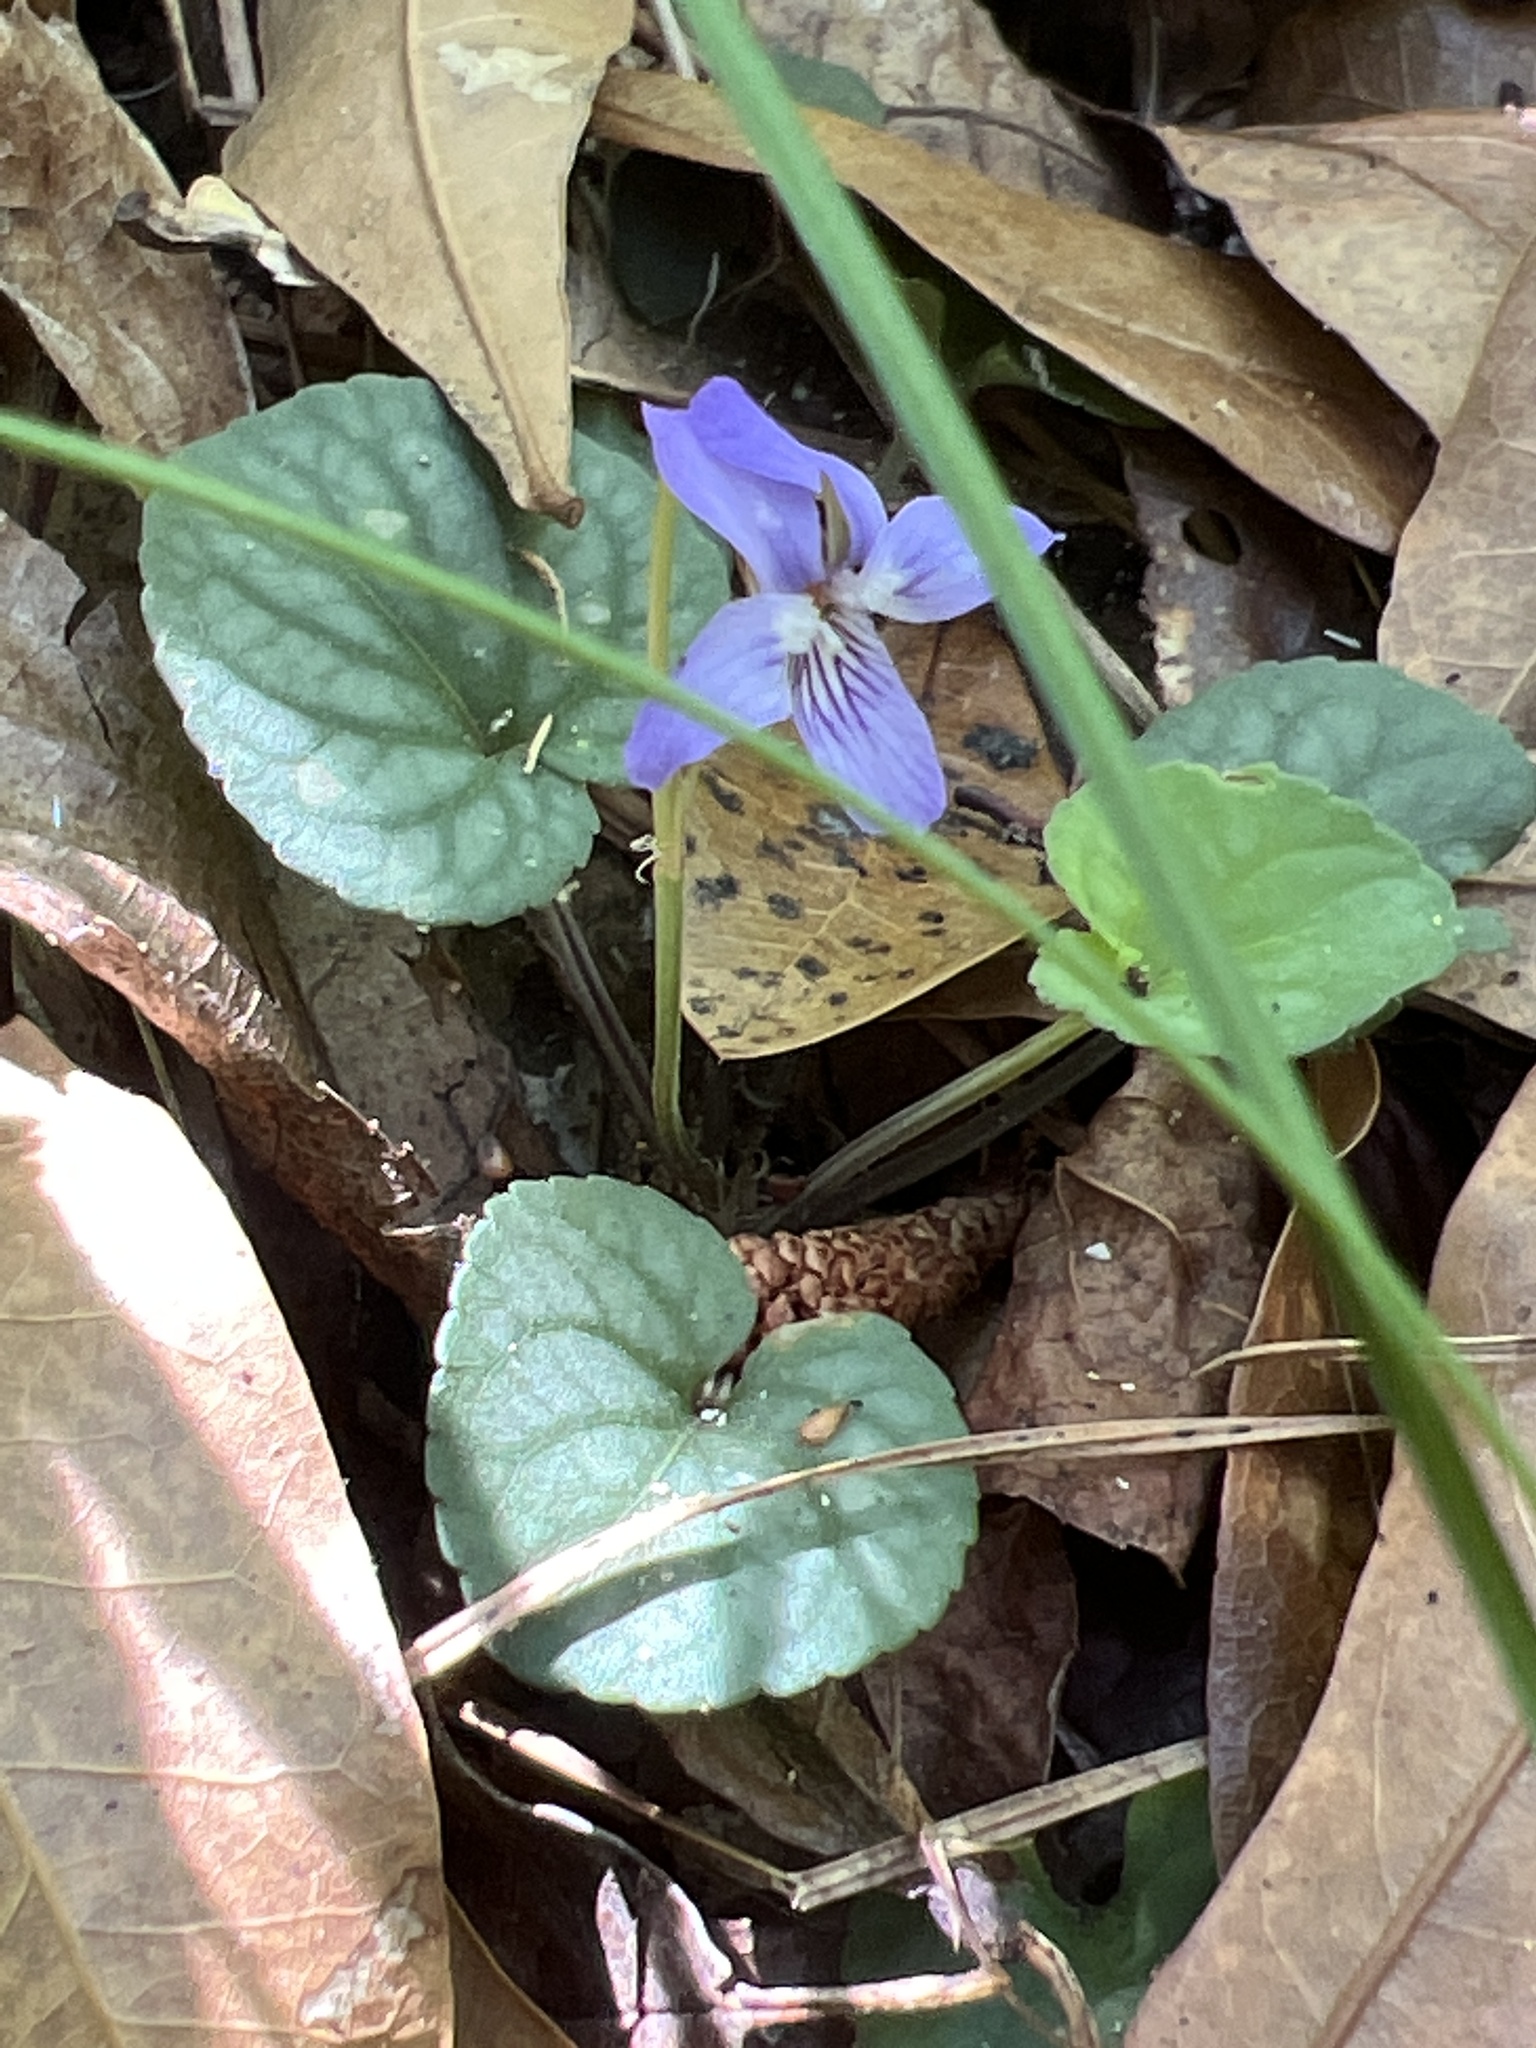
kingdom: Plantae
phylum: Tracheophyta
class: Magnoliopsida
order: Malpighiales
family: Violaceae
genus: Viola
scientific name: Viola walteri
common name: Prostrate southern violet
